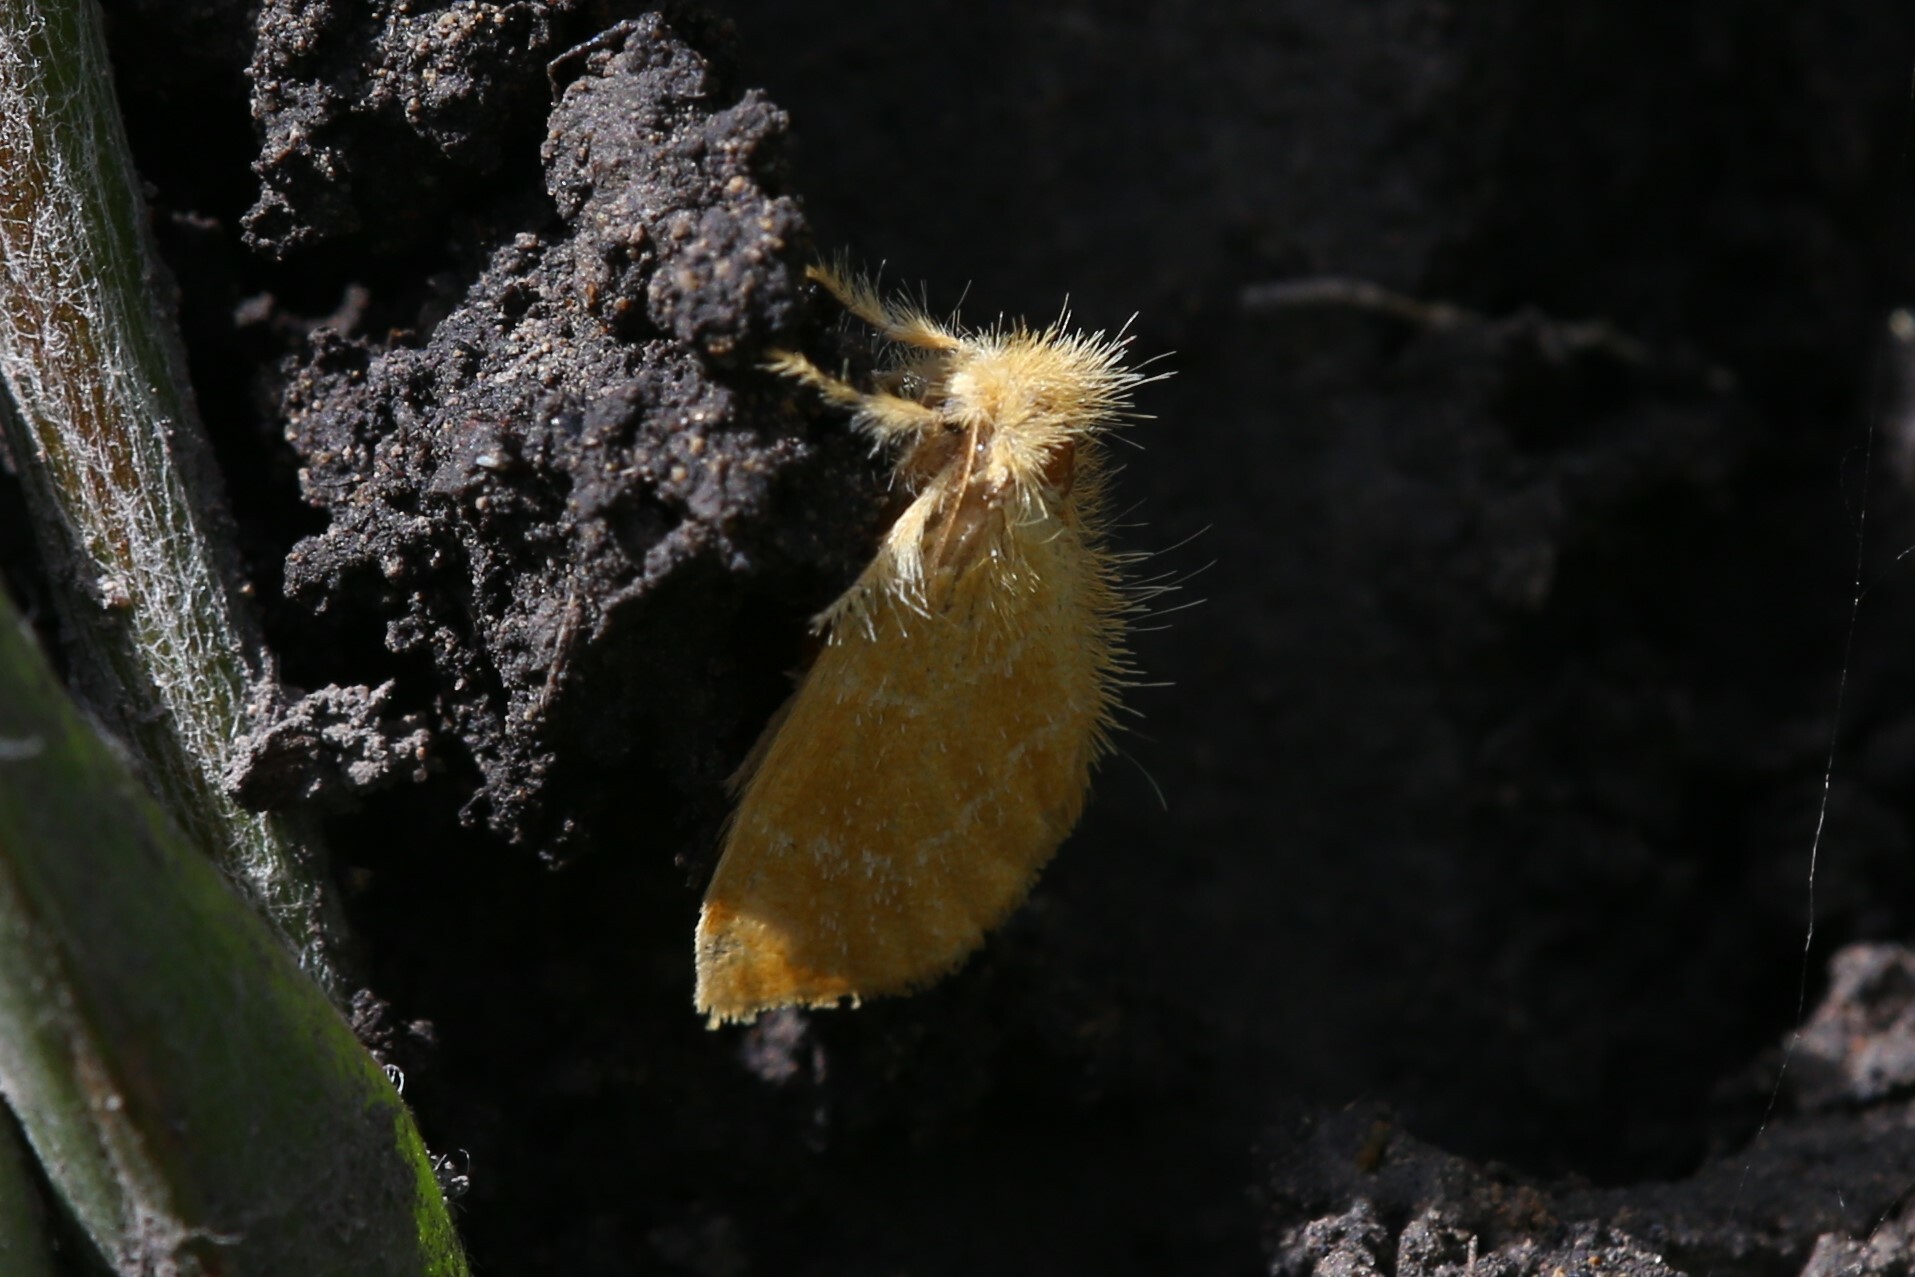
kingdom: Animalia
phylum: Arthropoda
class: Insecta
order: Lepidoptera
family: Erebidae
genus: Euproctis
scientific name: Euproctis lutea
